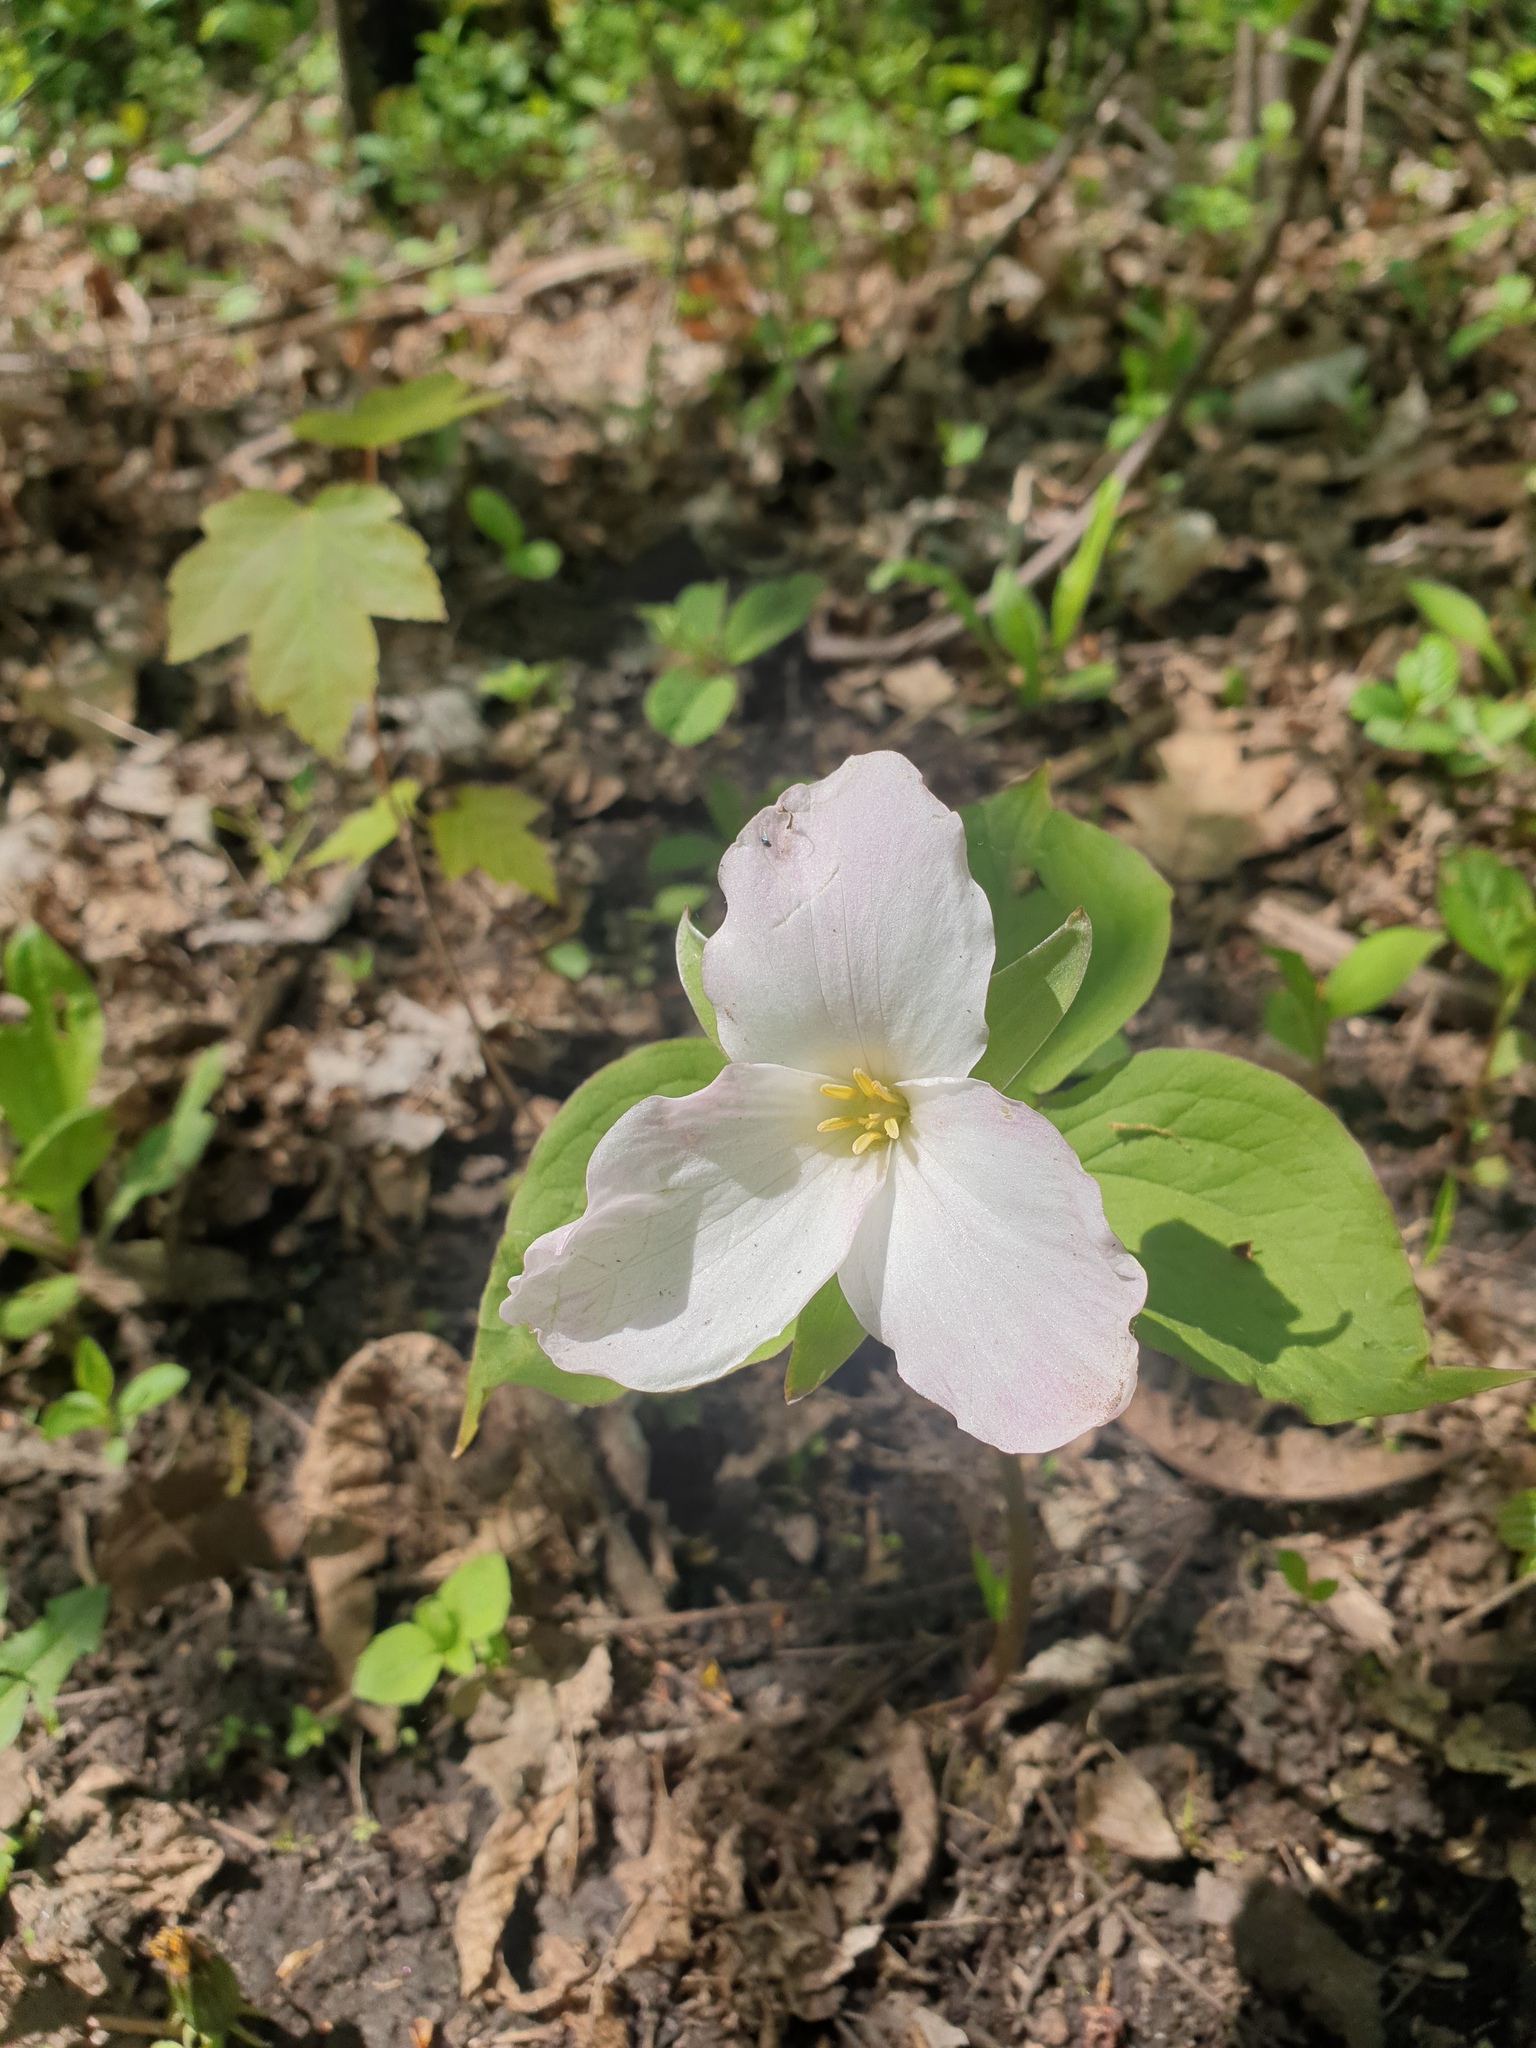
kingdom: Plantae
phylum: Tracheophyta
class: Liliopsida
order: Liliales
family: Melanthiaceae
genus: Trillium
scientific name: Trillium grandiflorum
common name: Great white trillium
